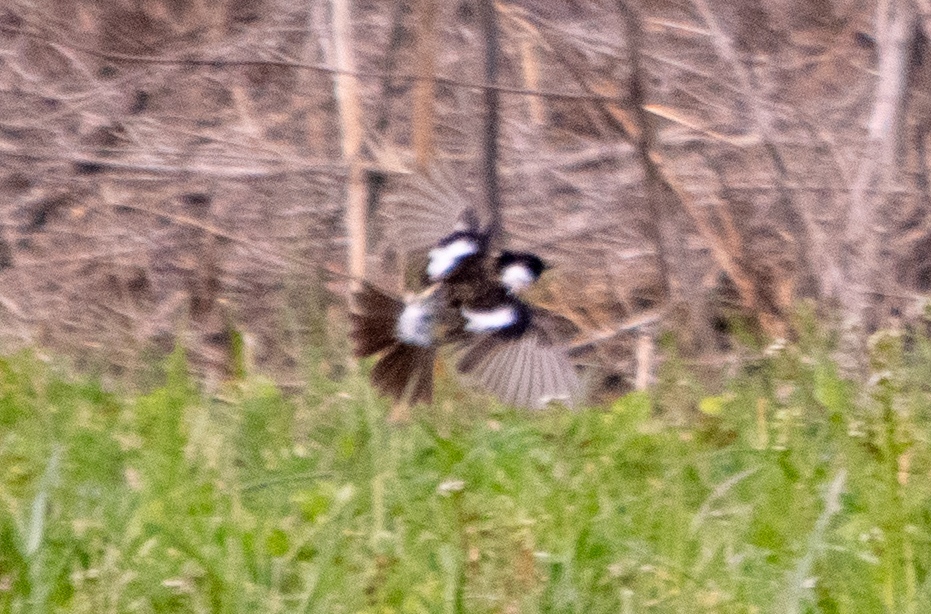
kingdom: Animalia
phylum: Chordata
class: Aves
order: Passeriformes
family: Muscicapidae
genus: Saxicola
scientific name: Saxicola rubicola
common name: European stonechat
